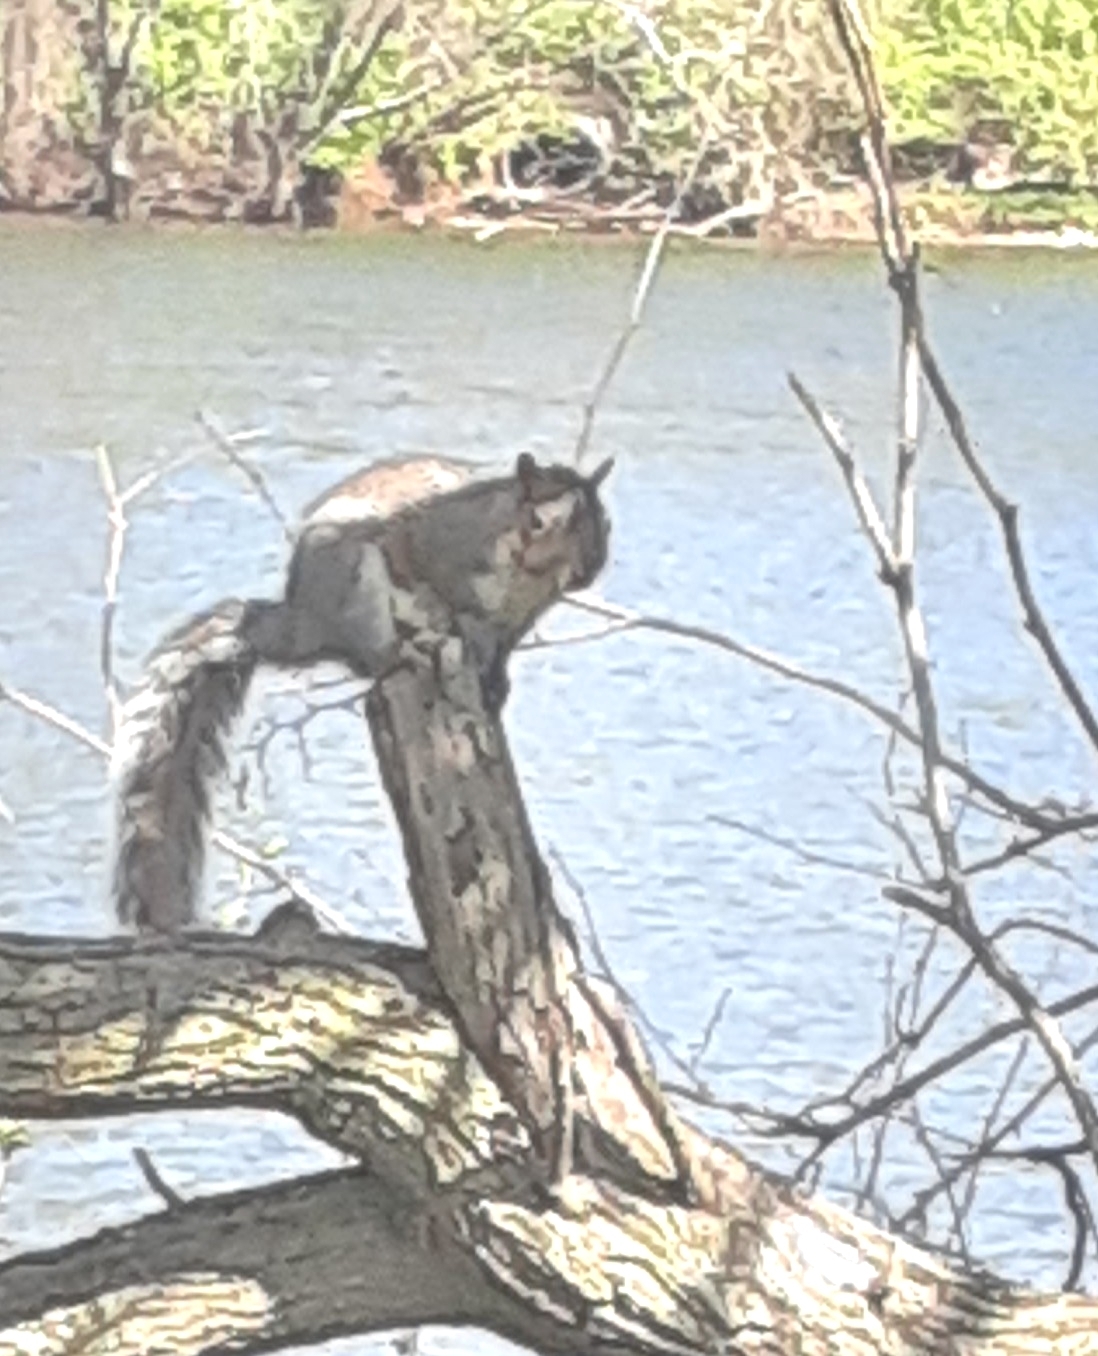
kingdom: Animalia
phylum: Chordata
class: Mammalia
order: Rodentia
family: Sciuridae
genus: Sciurus
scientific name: Sciurus carolinensis
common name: Eastern gray squirrel
